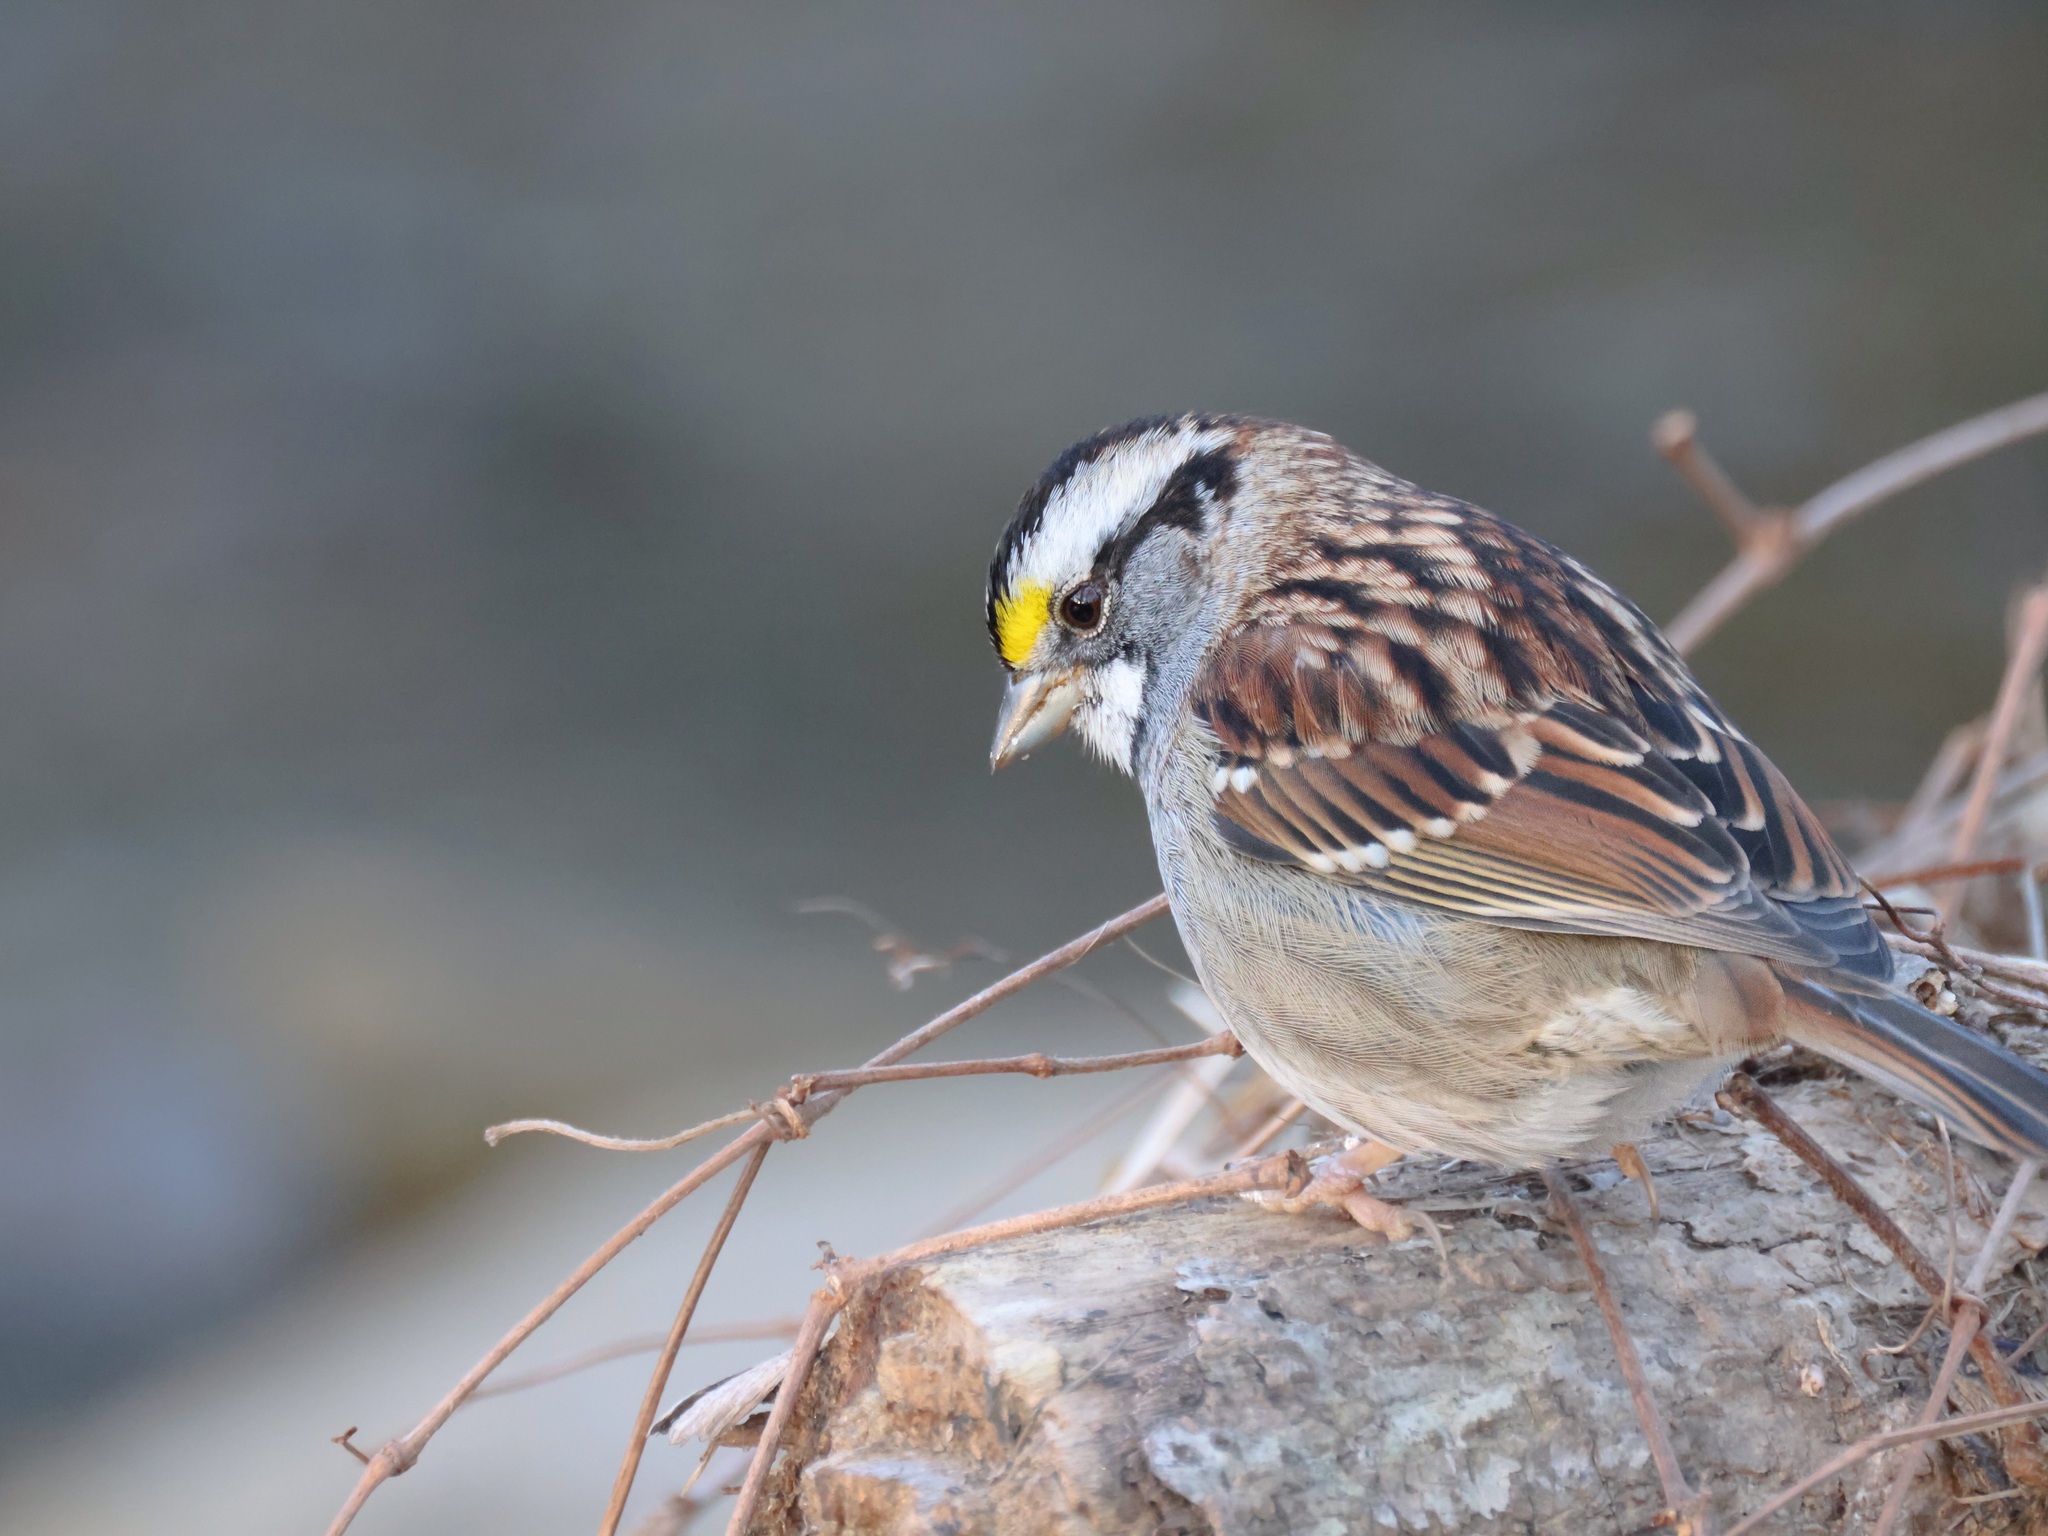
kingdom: Animalia
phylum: Chordata
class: Aves
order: Passeriformes
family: Passerellidae
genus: Zonotrichia
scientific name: Zonotrichia albicollis
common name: White-throated sparrow
